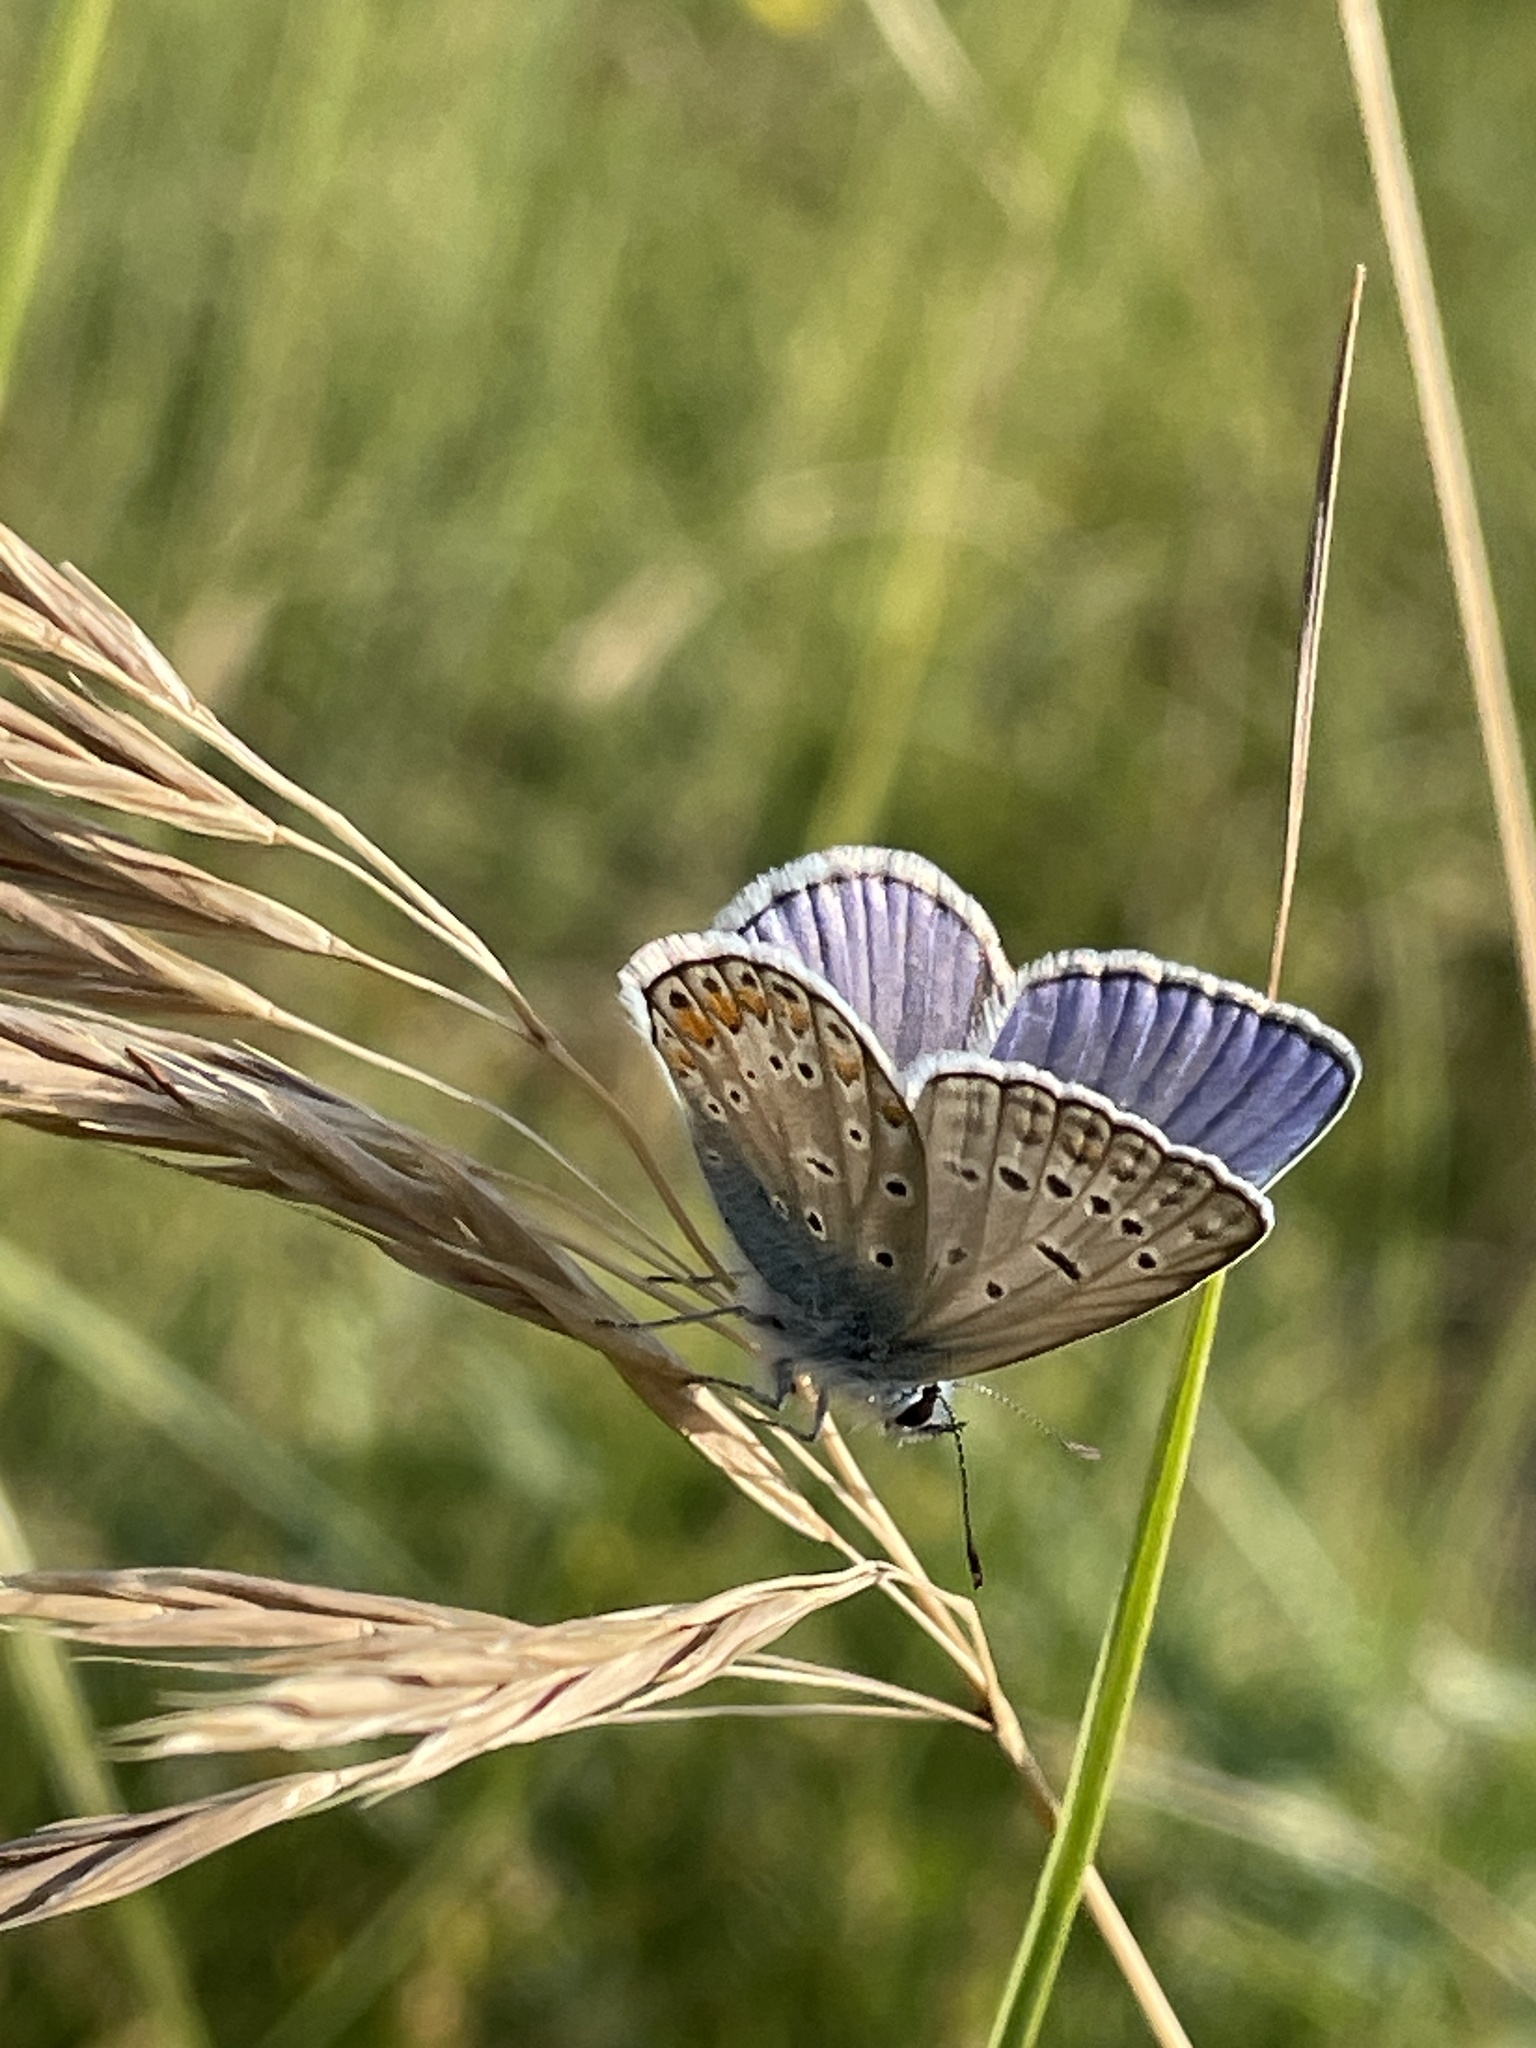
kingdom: Animalia
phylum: Arthropoda
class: Insecta
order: Lepidoptera
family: Lycaenidae
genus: Polyommatus
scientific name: Polyommatus icarus
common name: Common blue
